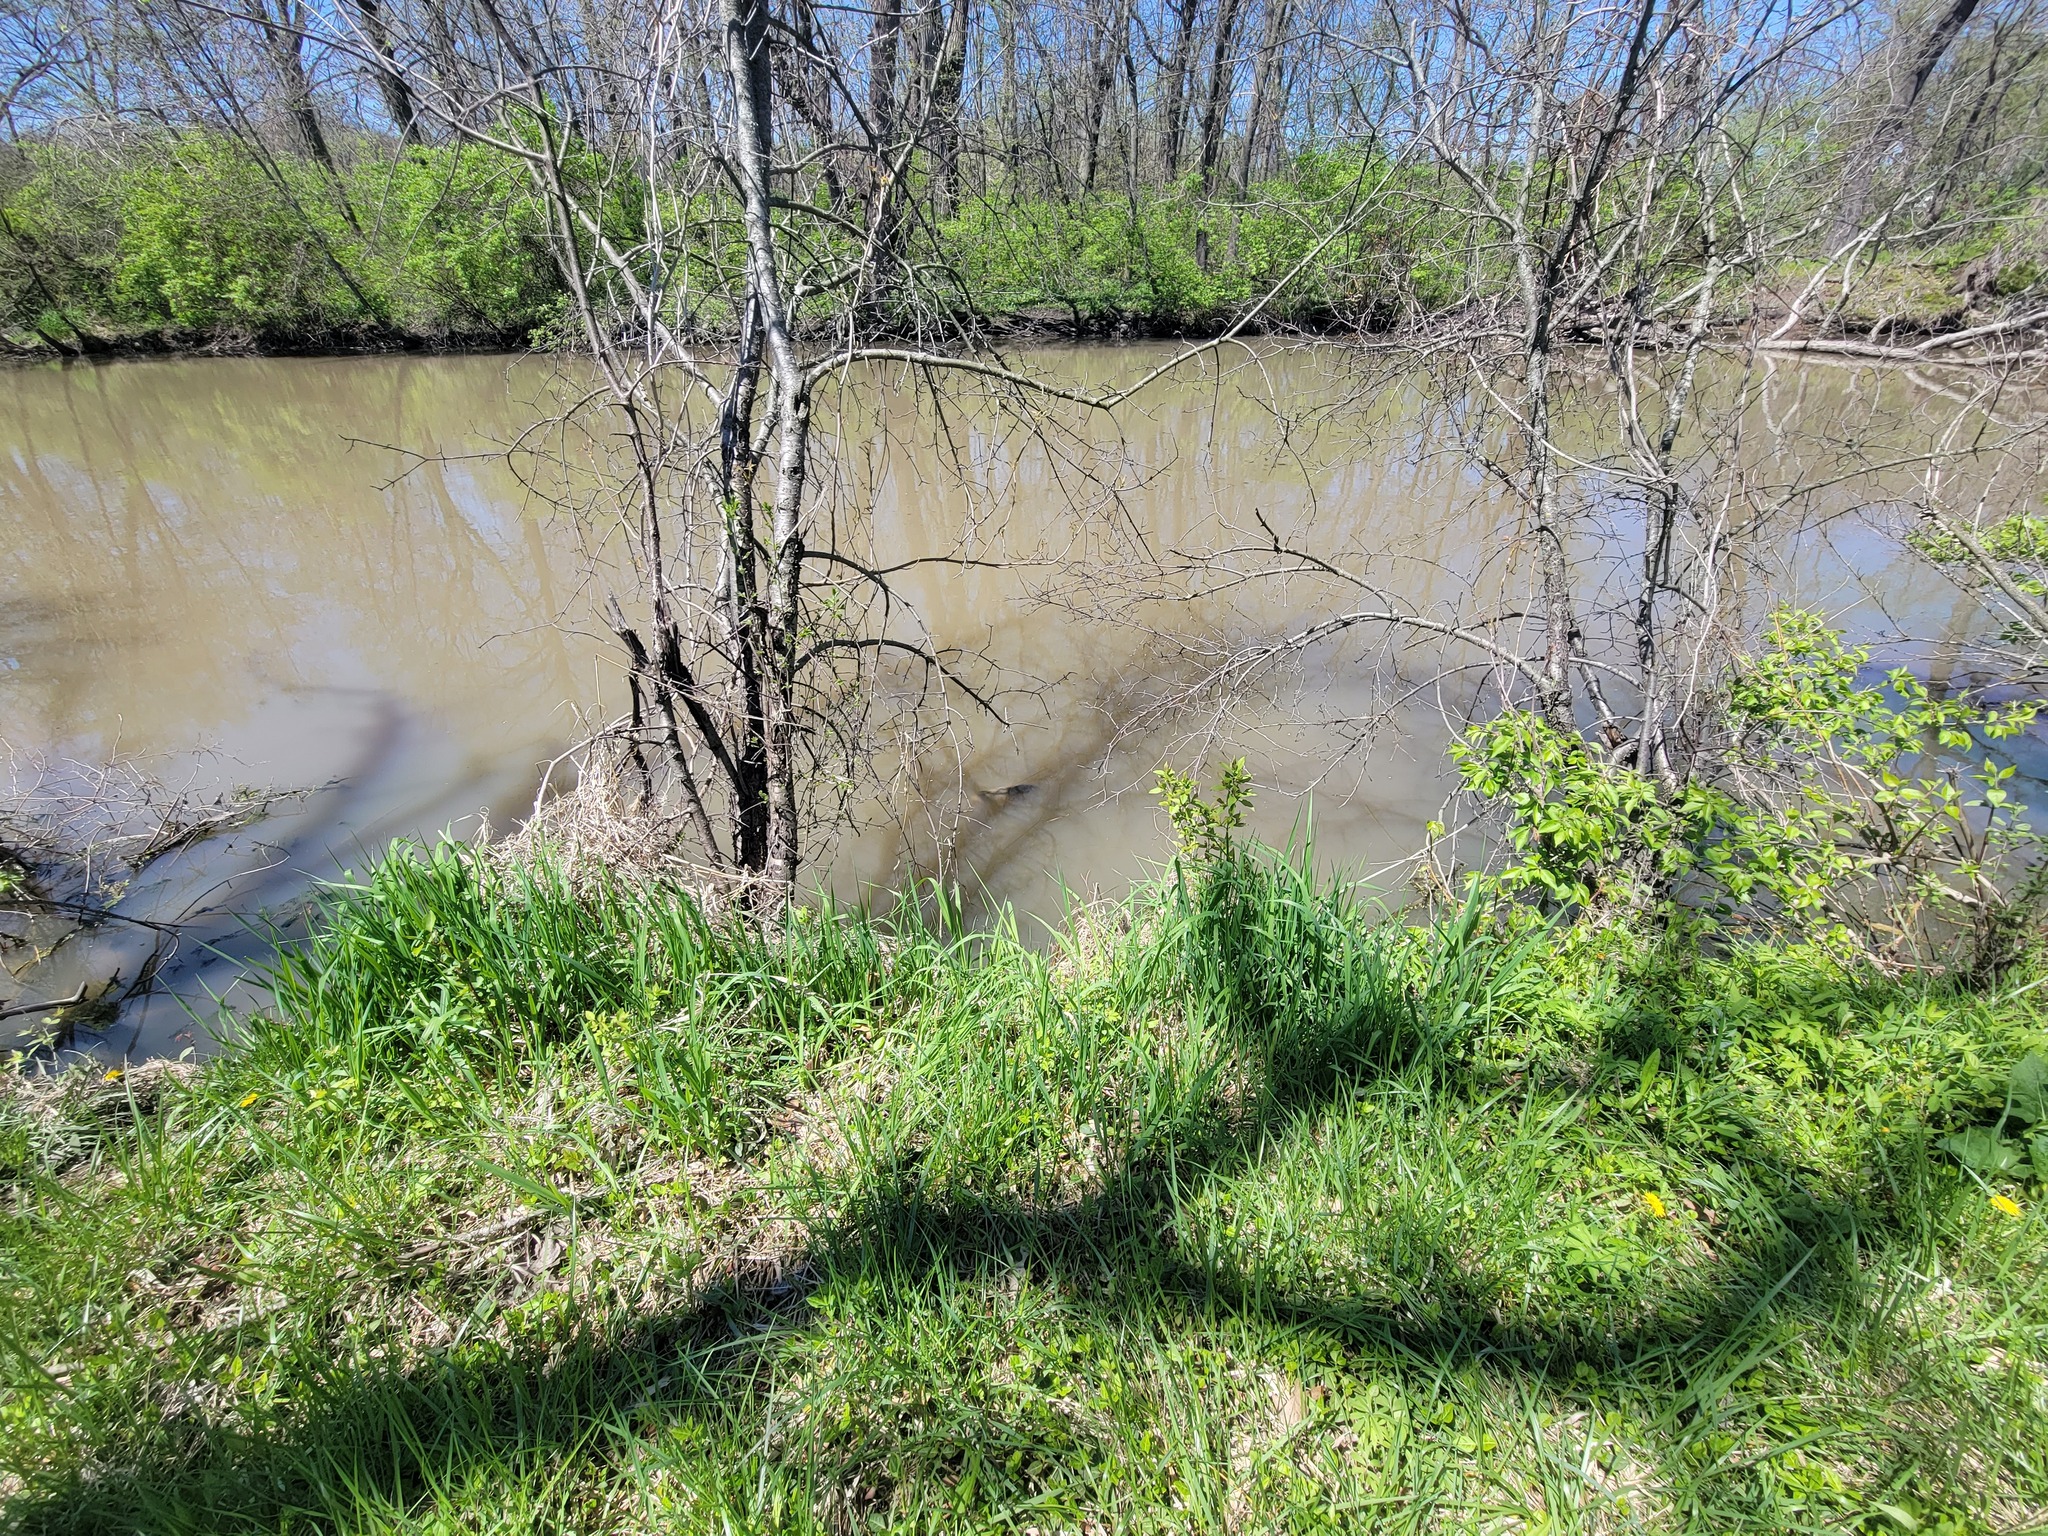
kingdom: Animalia
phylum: Chordata
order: Cypriniformes
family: Cyprinidae
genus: Cyprinus
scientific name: Cyprinus carpio
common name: Common carp
